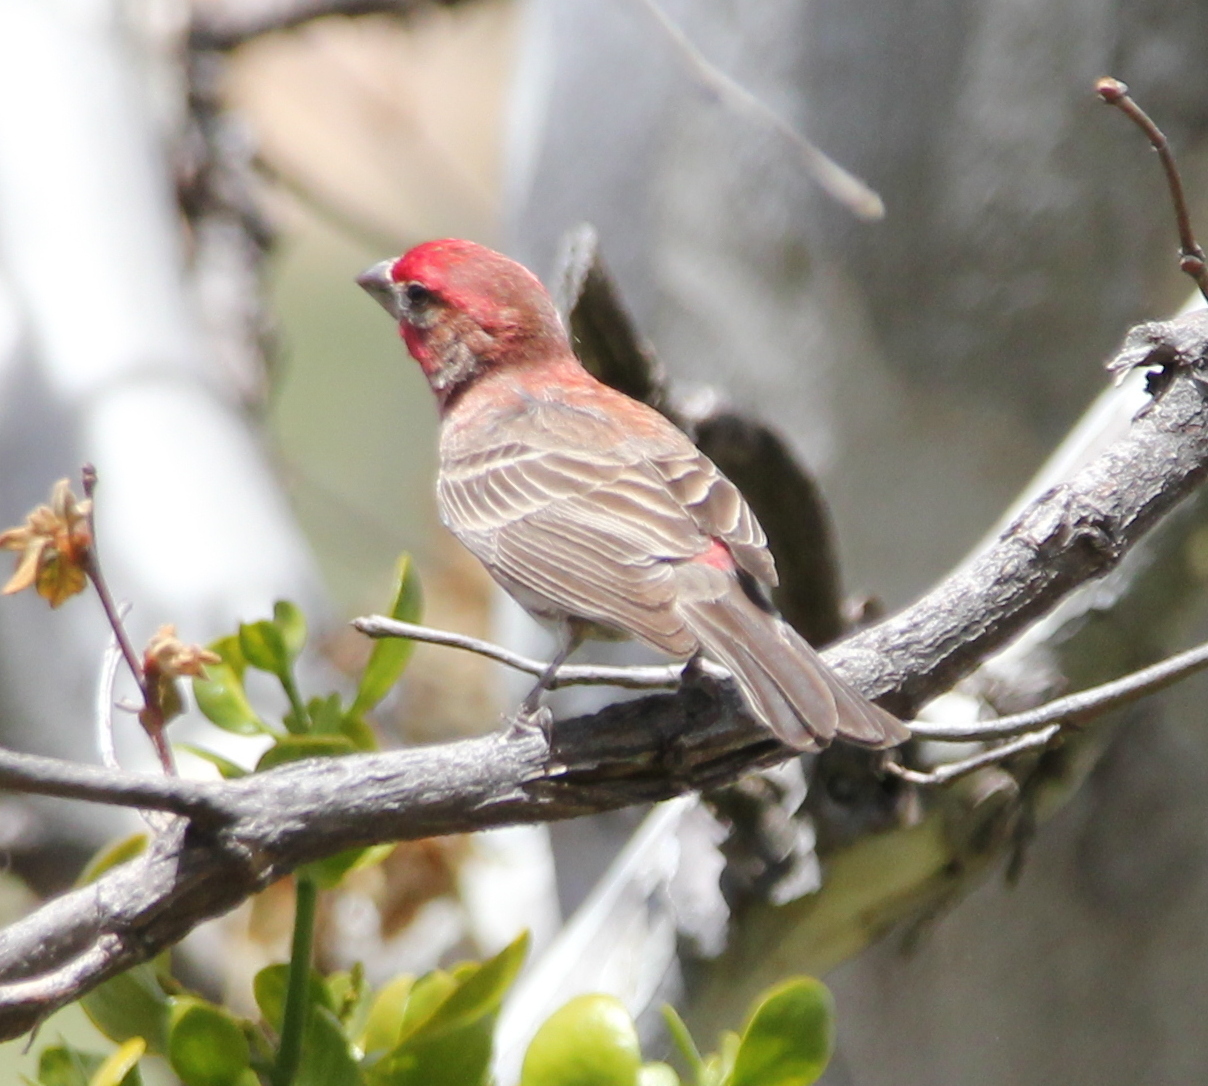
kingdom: Animalia
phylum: Chordata
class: Aves
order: Passeriformes
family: Fringillidae
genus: Haemorhous
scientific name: Haemorhous mexicanus
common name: House finch
